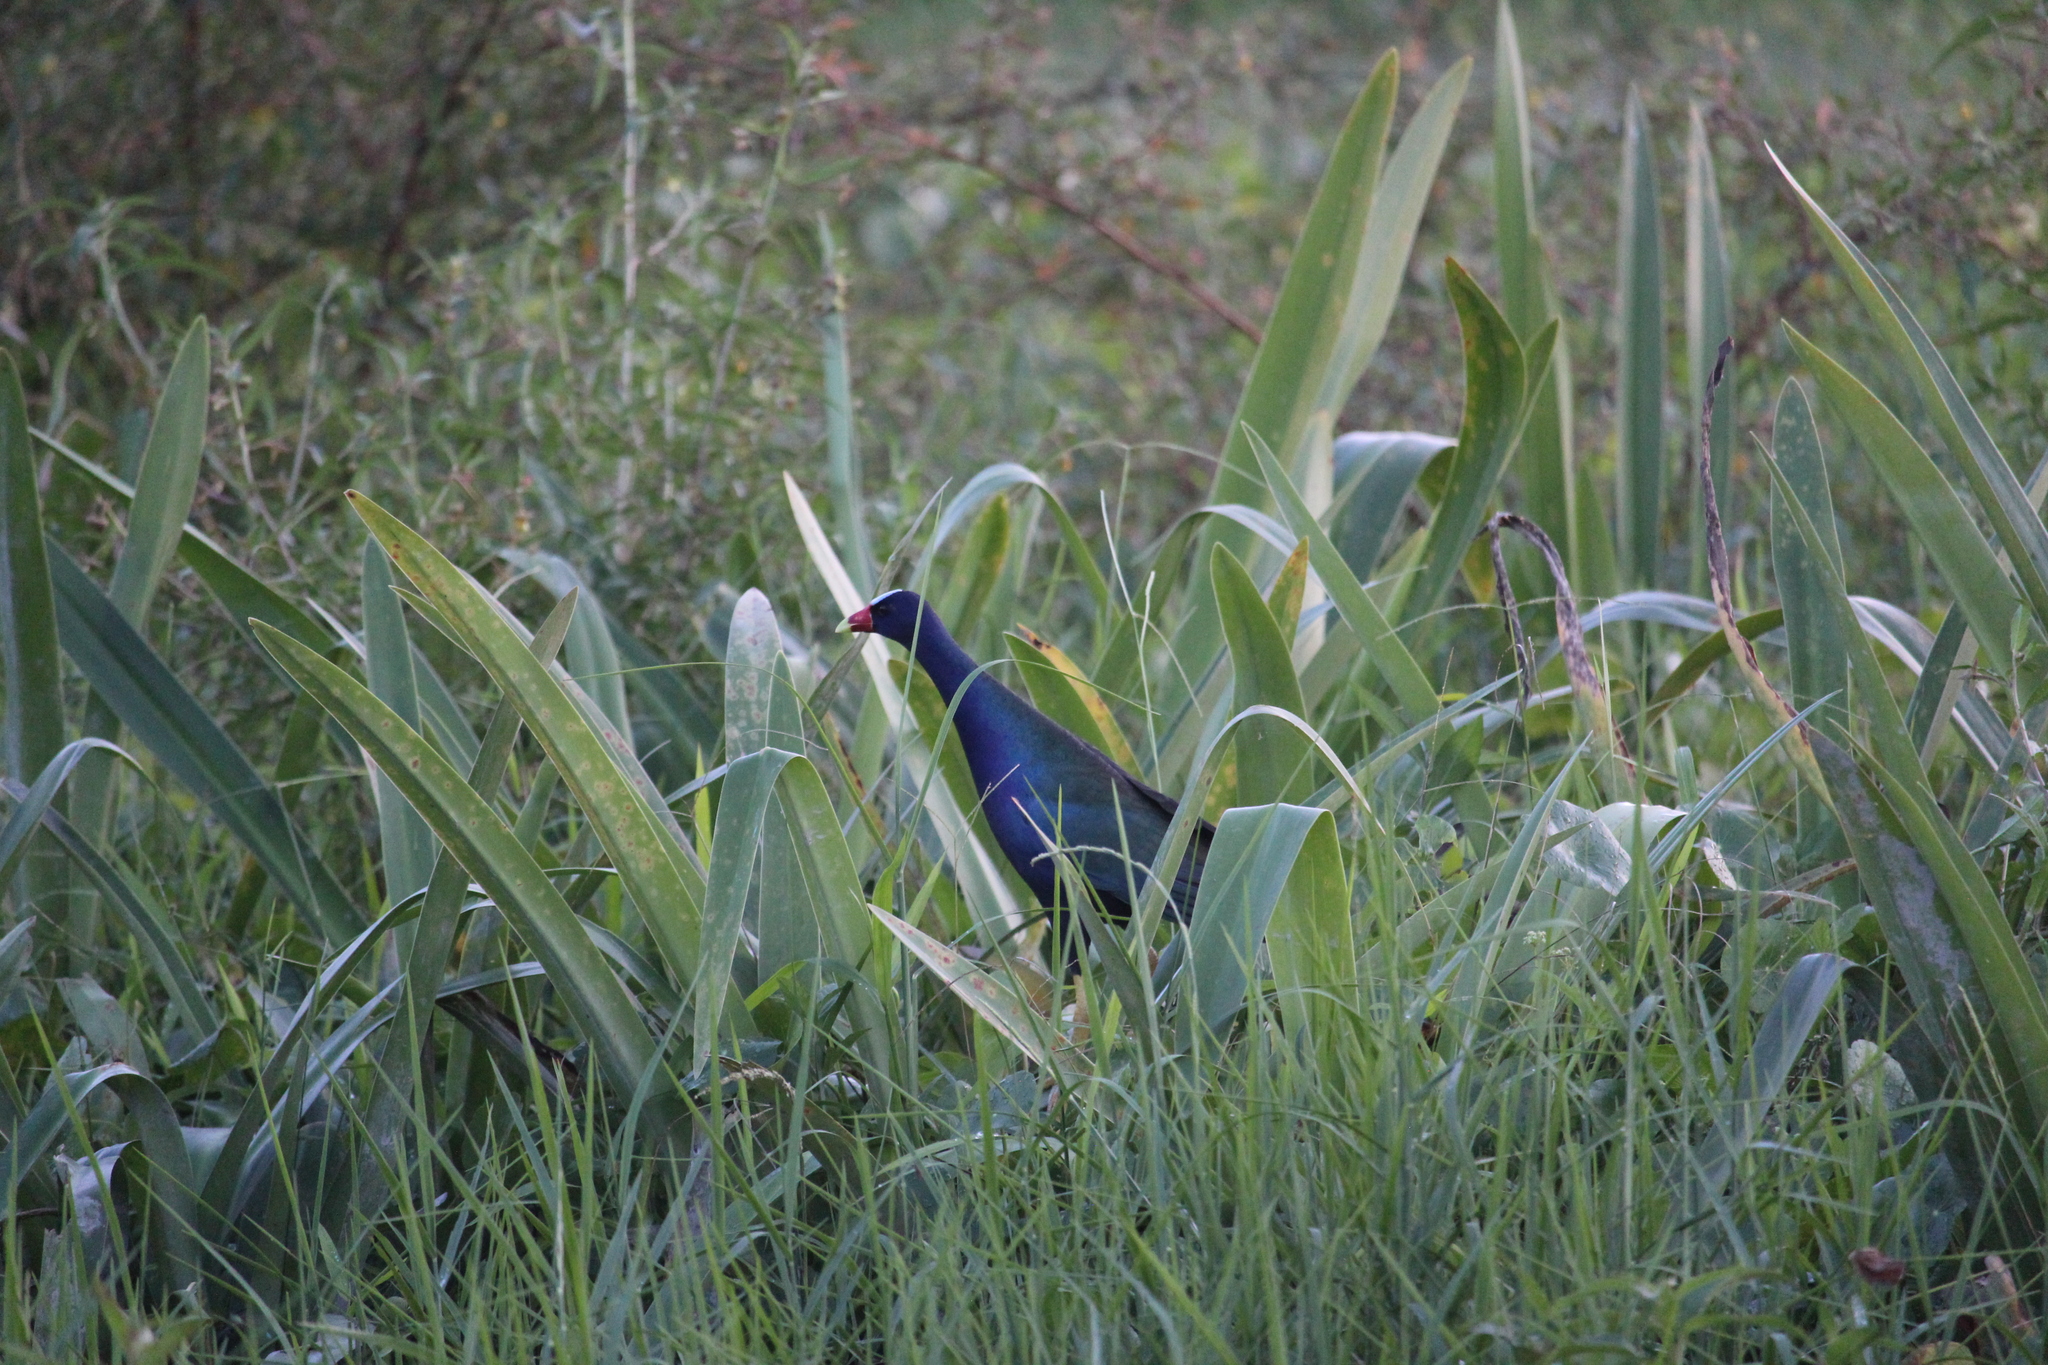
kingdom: Animalia
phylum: Chordata
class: Aves
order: Gruiformes
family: Rallidae
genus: Porphyrio
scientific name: Porphyrio martinica
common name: Purple gallinule
